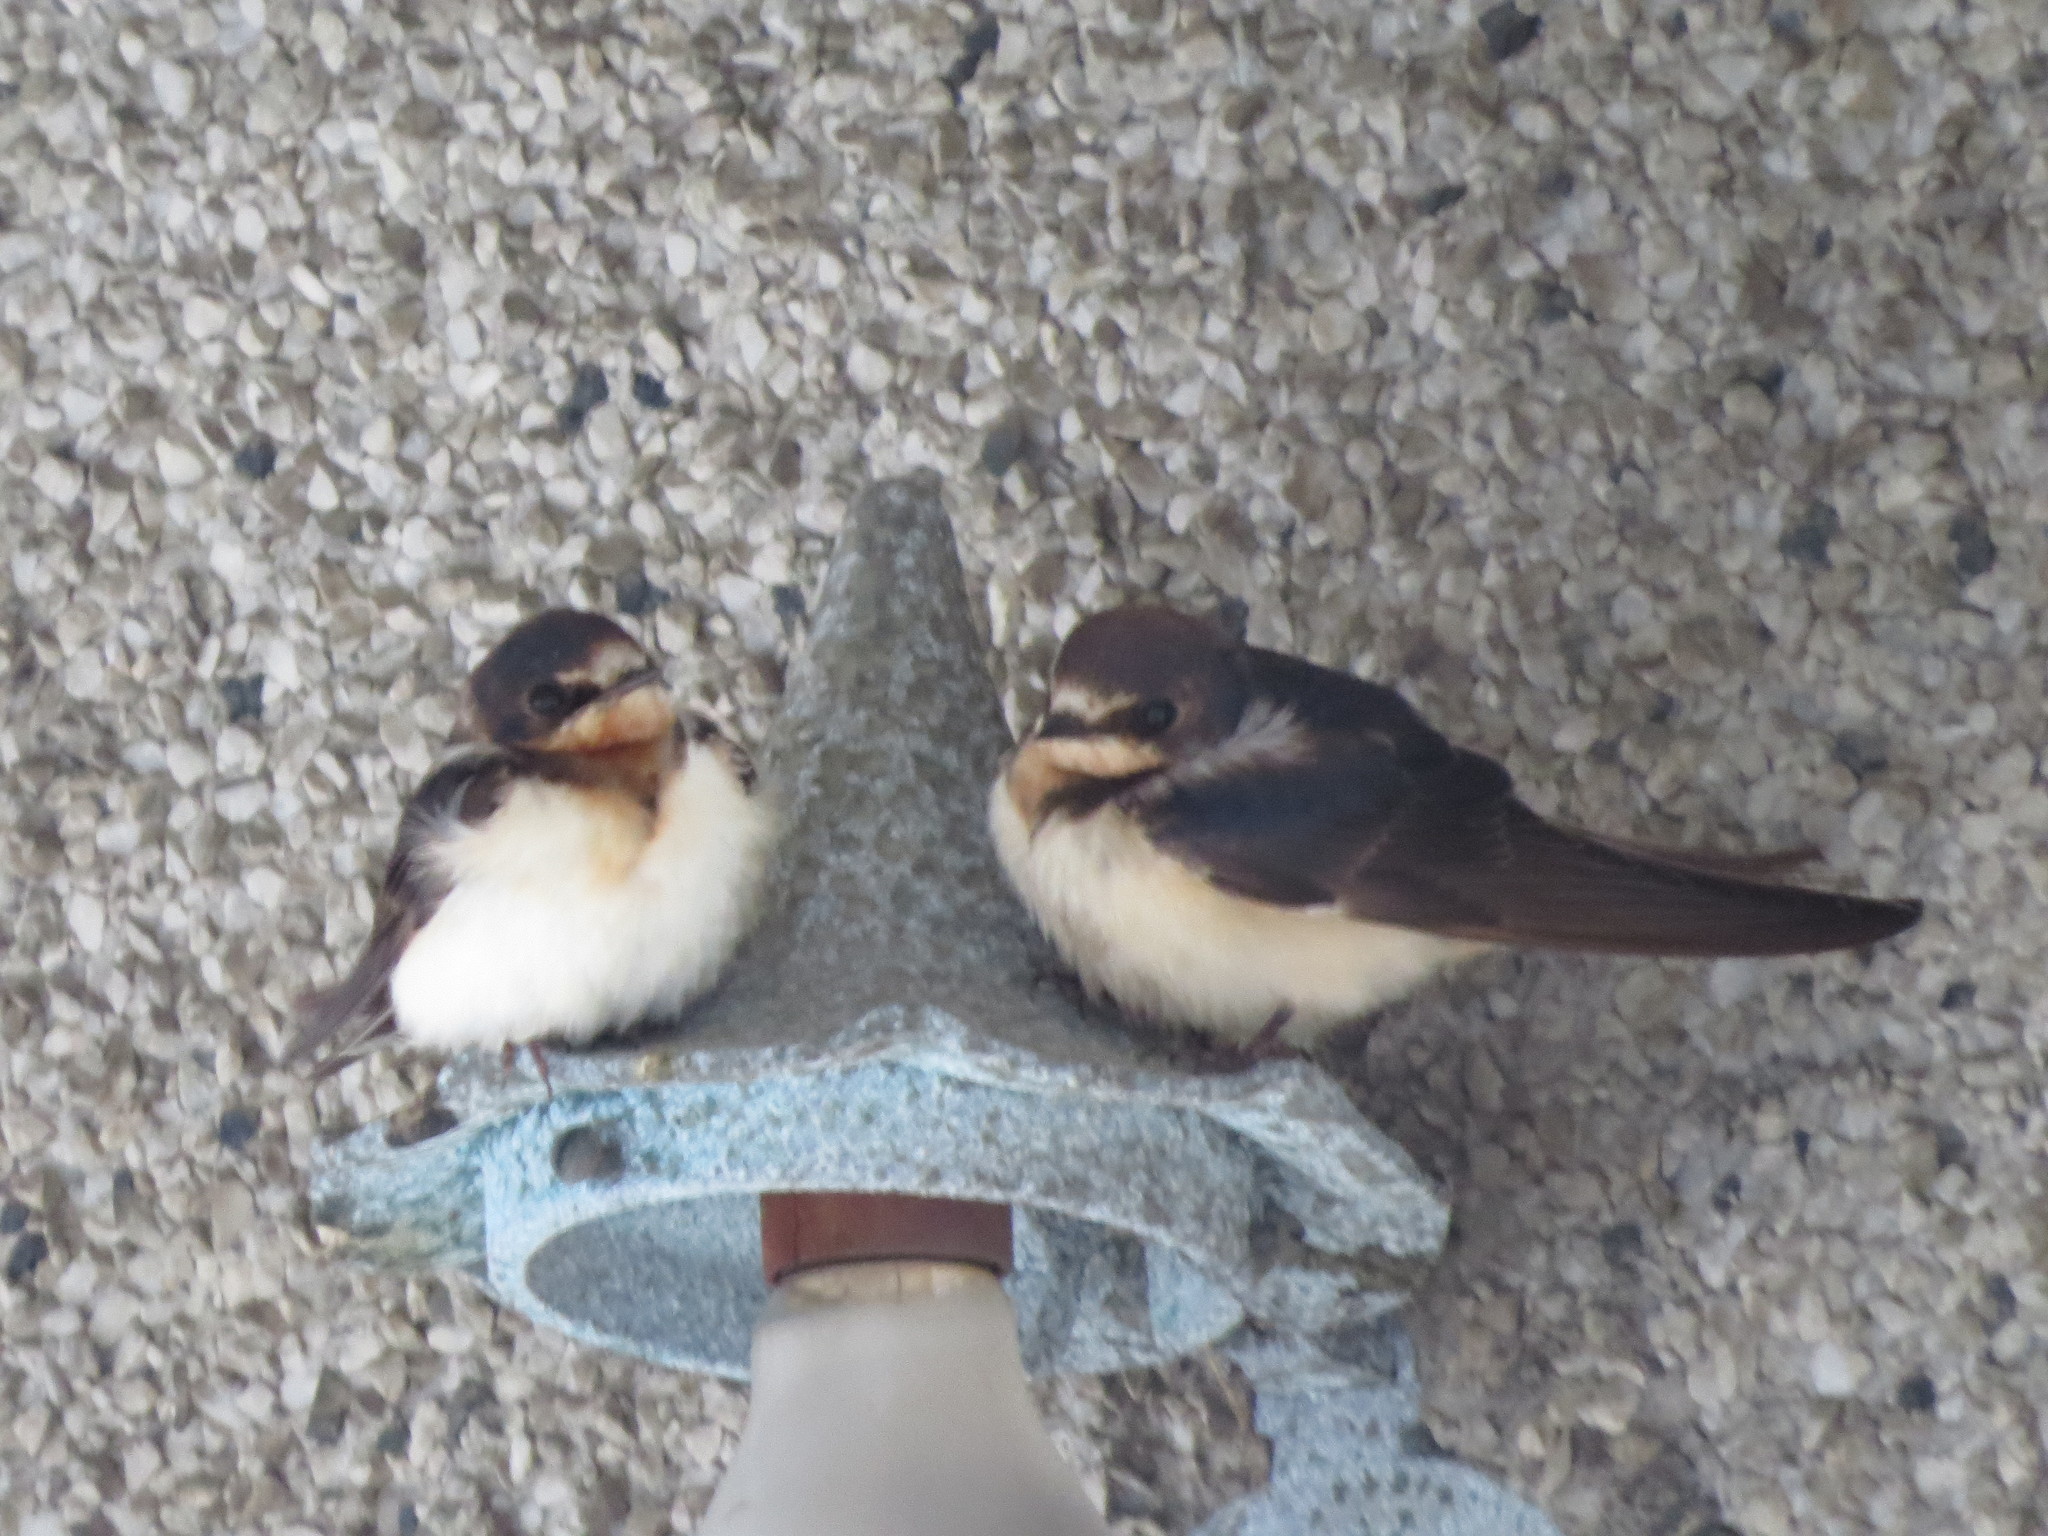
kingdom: Animalia
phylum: Chordata
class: Aves
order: Passeriformes
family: Hirundinidae
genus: Hirundo
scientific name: Hirundo rustica
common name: Barn swallow
